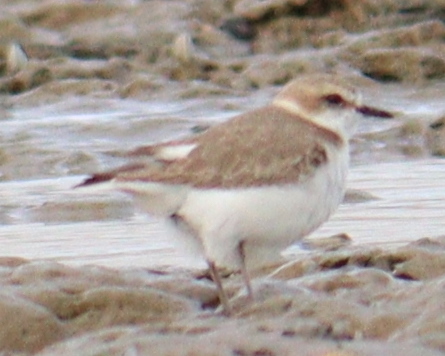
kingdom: Animalia
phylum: Chordata
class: Aves
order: Charadriiformes
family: Charadriidae
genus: Charadrius
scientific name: Charadrius alexandrinus
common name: Kentish plover
